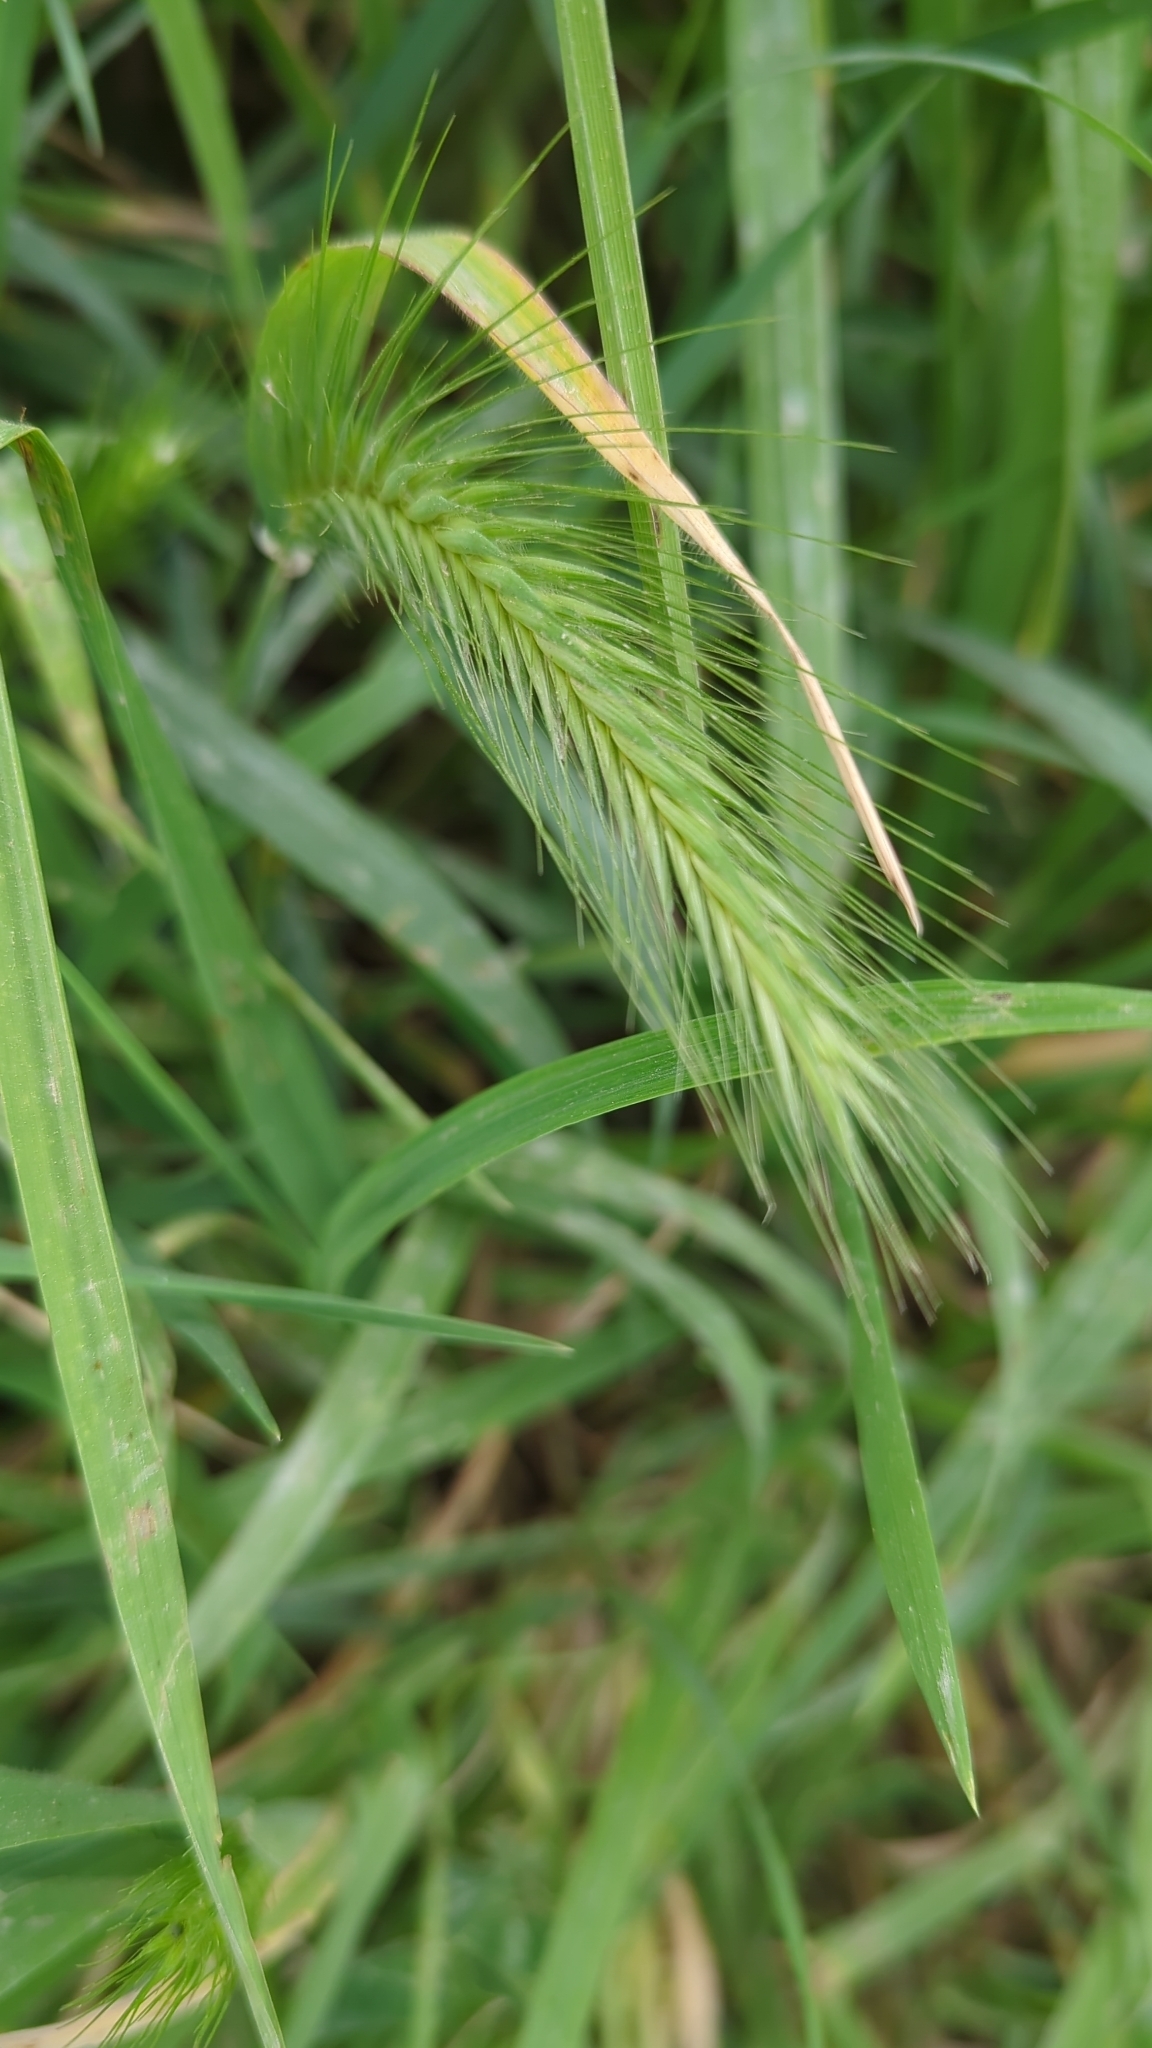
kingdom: Plantae
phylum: Tracheophyta
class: Liliopsida
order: Poales
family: Poaceae
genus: Hordeum
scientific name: Hordeum murinum
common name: Wall barley
